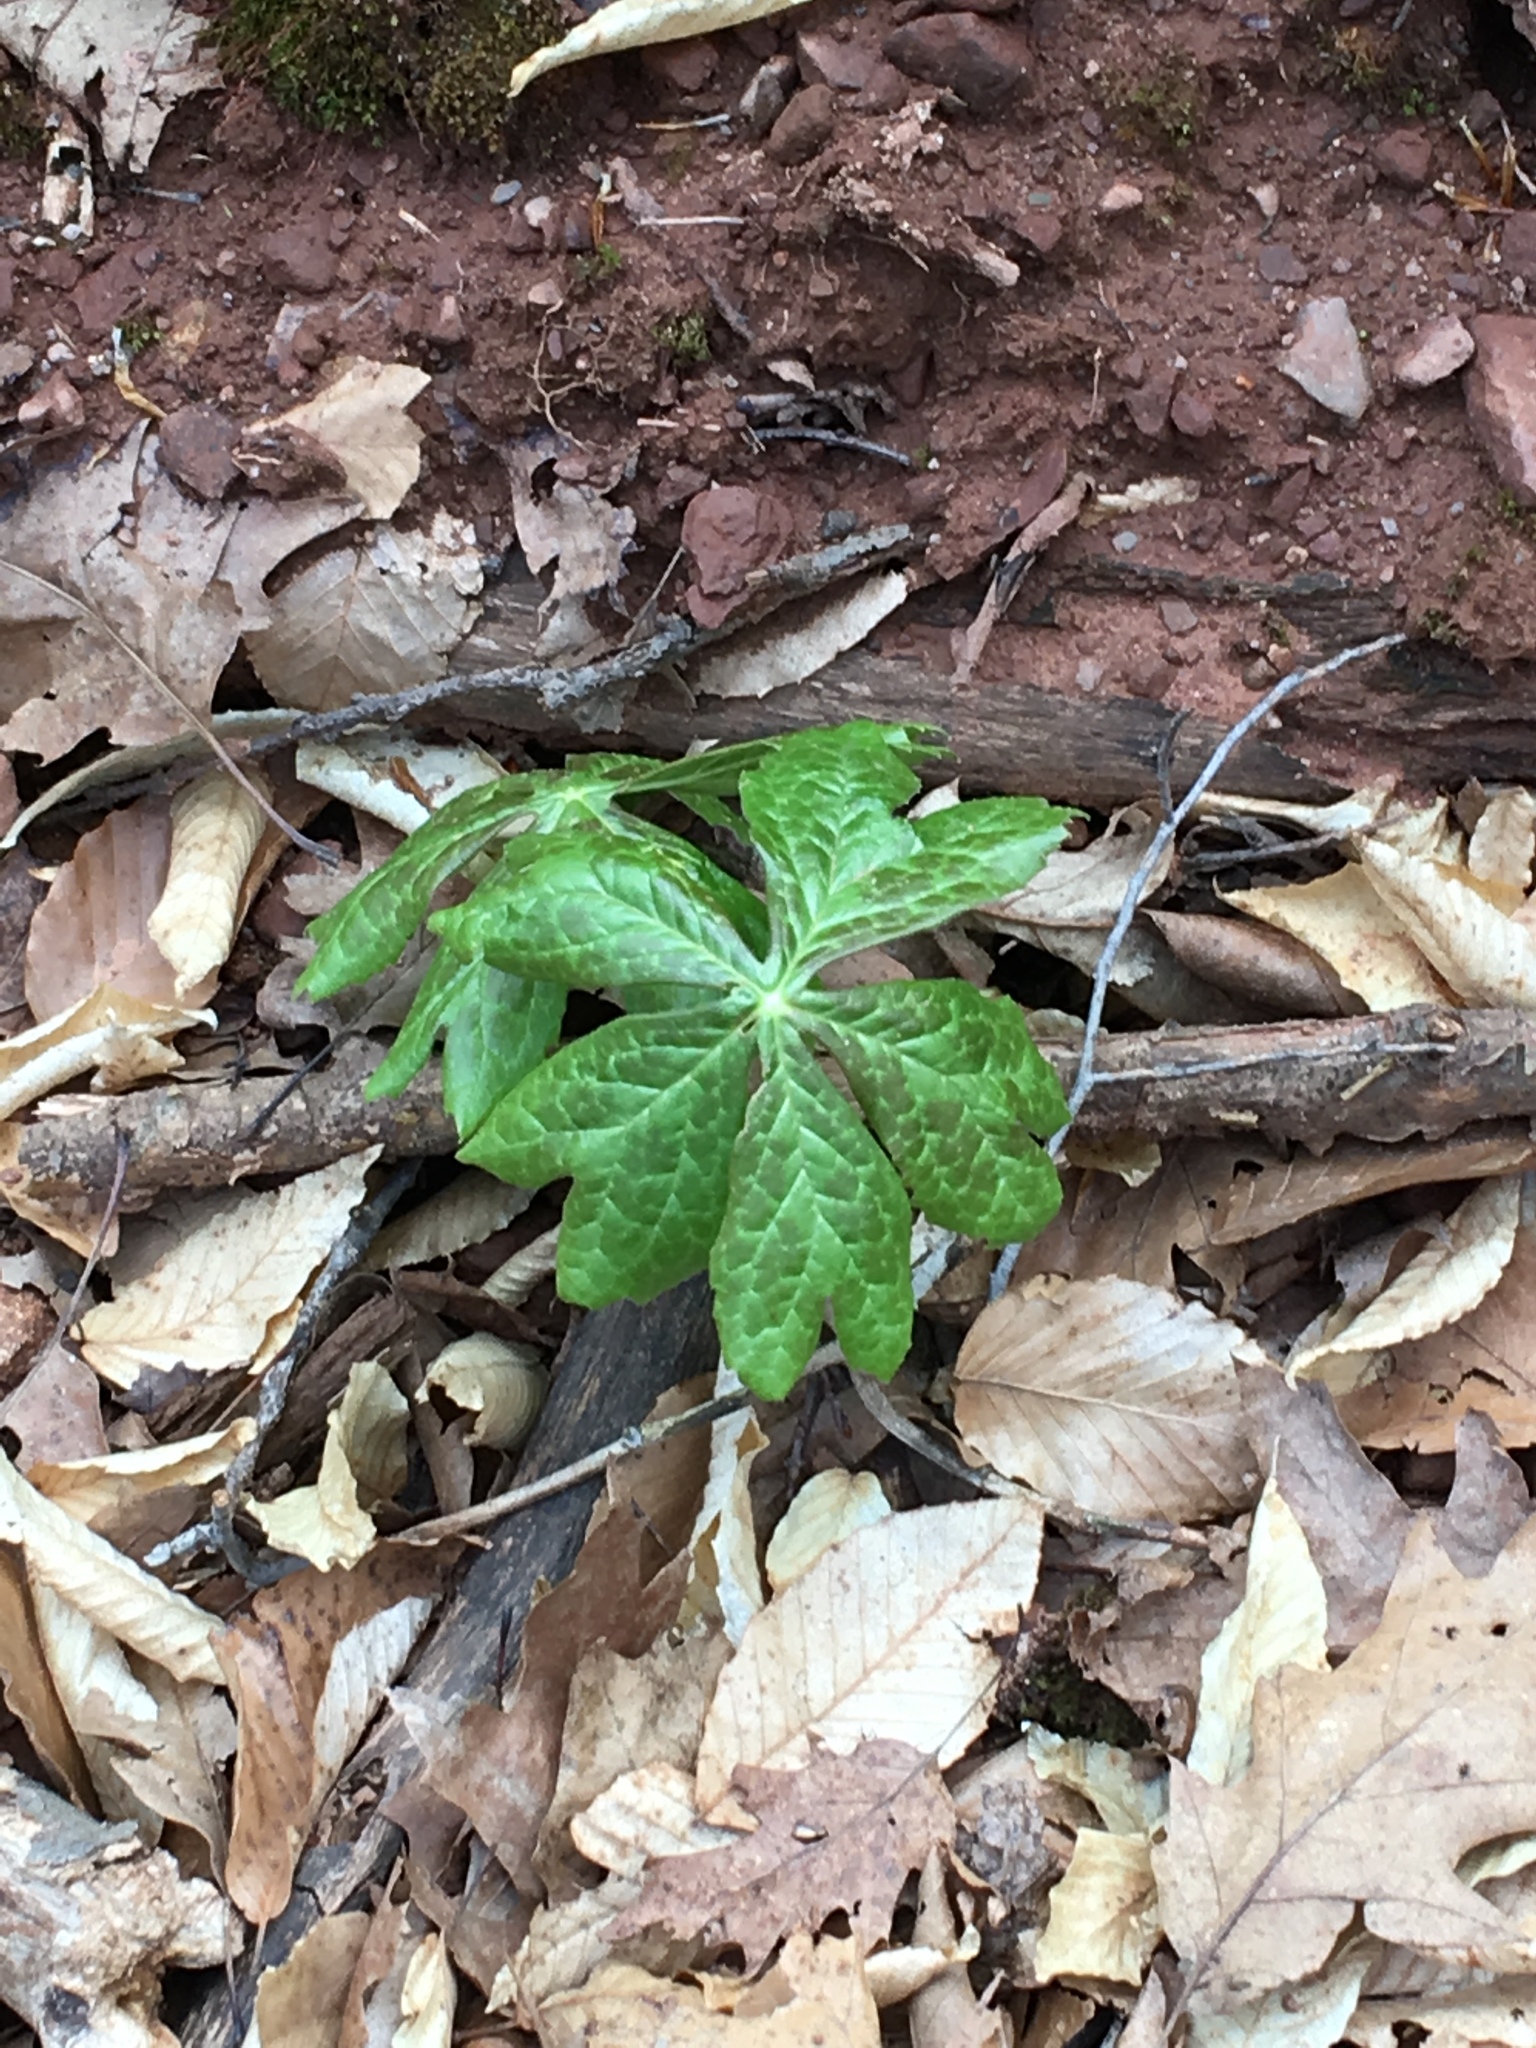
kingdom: Plantae
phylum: Tracheophyta
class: Magnoliopsida
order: Ranunculales
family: Berberidaceae
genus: Podophyllum
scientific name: Podophyllum peltatum
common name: Wild mandrake
